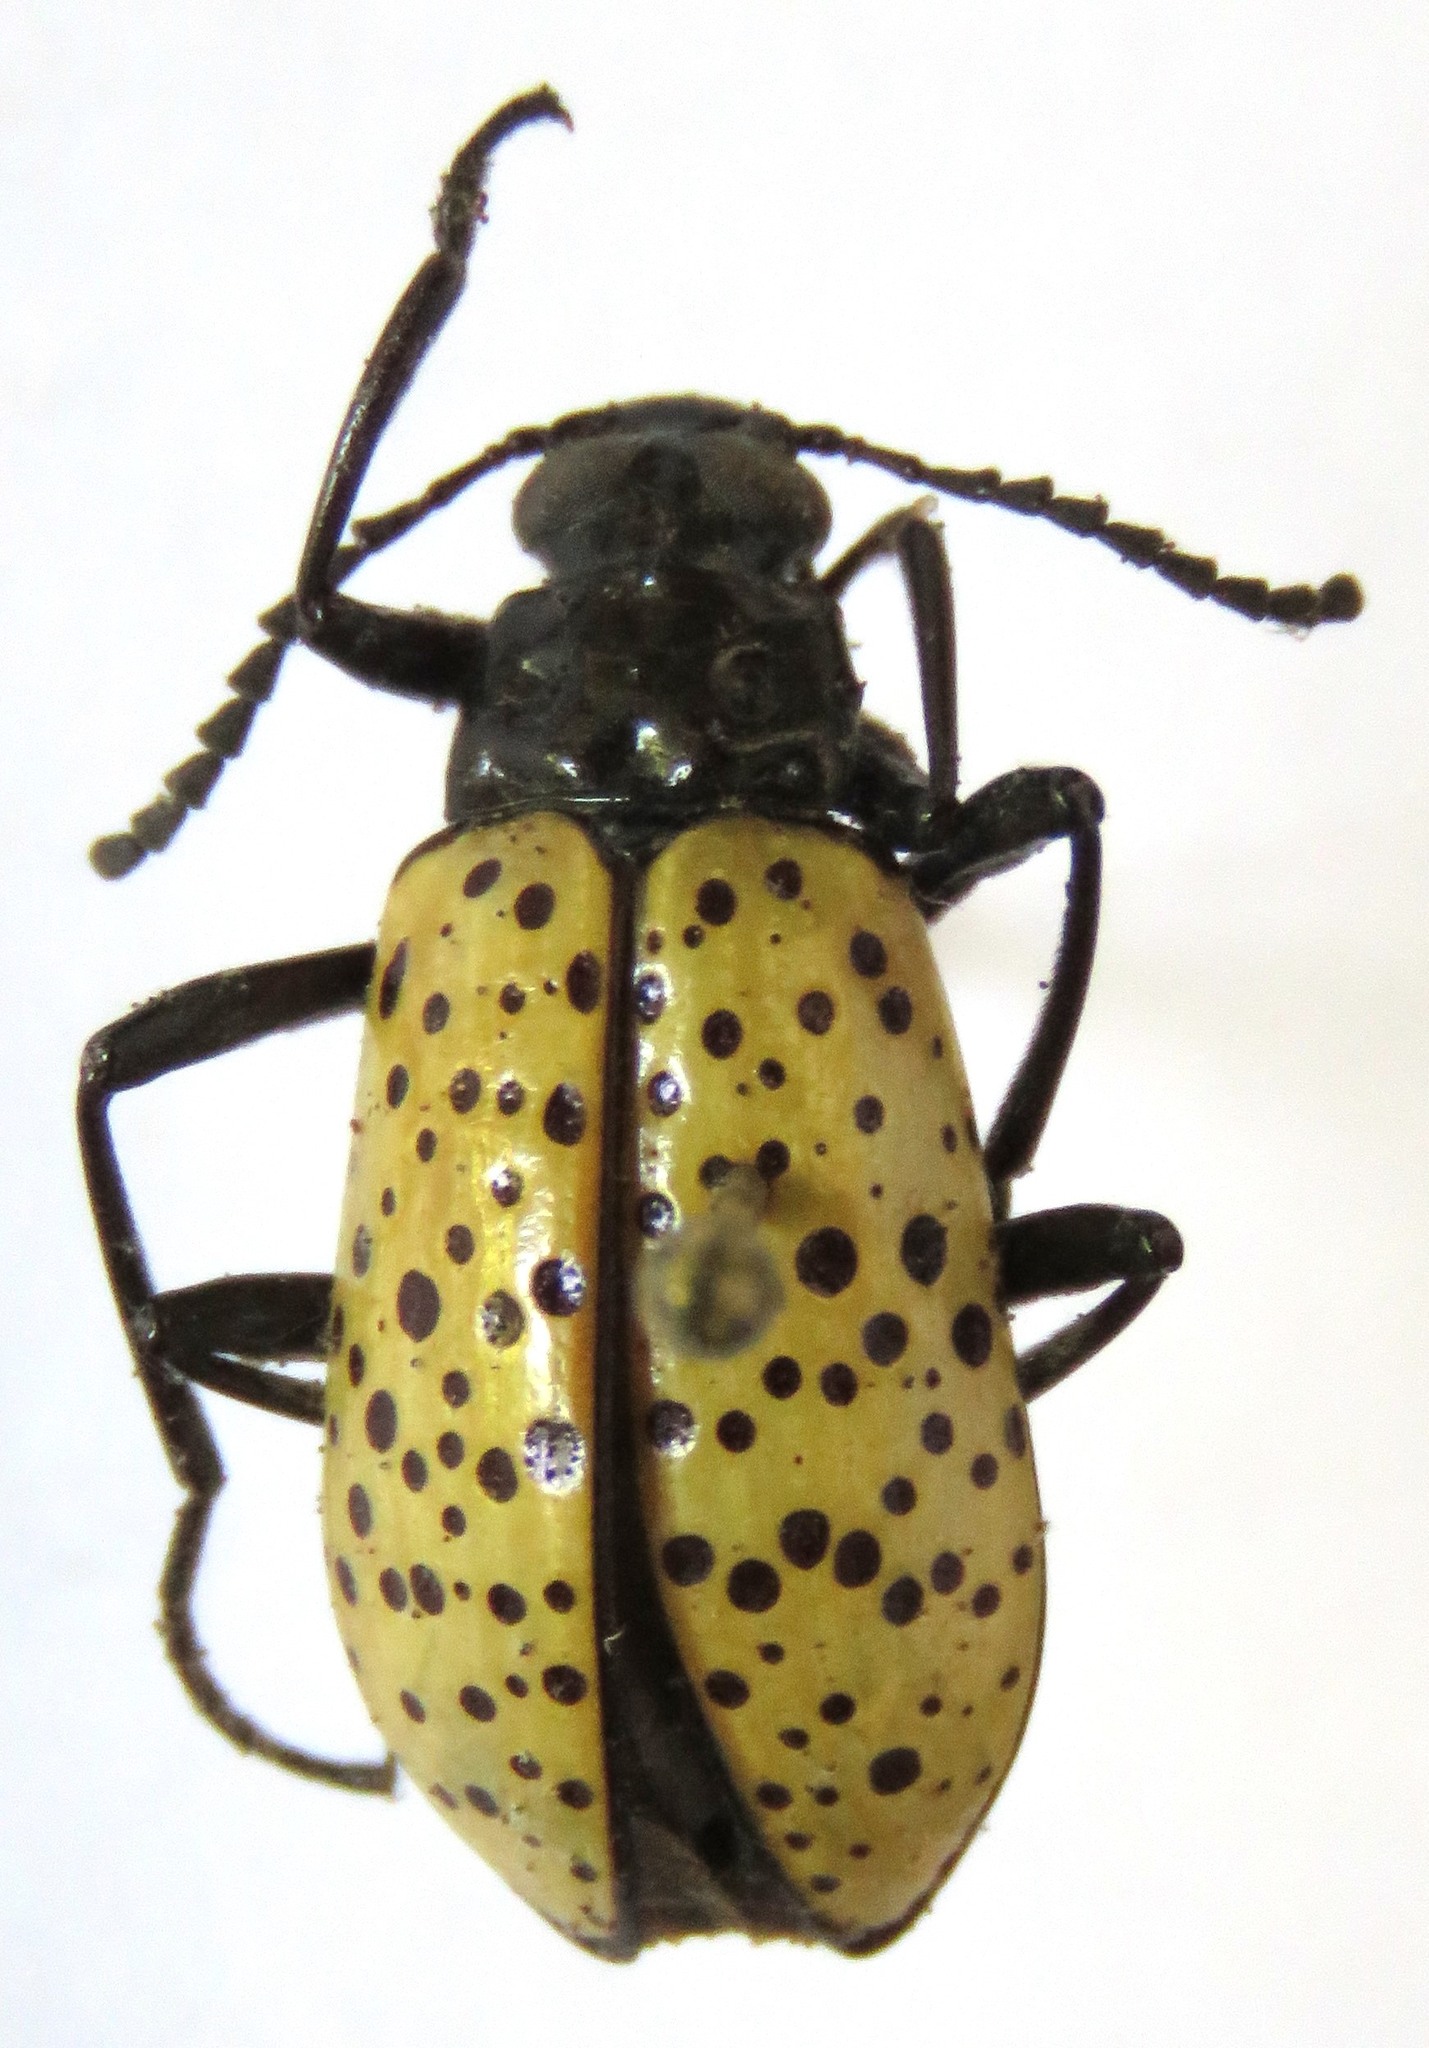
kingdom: Animalia
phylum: Arthropoda
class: Insecta
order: Coleoptera
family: Tenebrionidae
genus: Cuphotes
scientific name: Cuphotes elongatus
